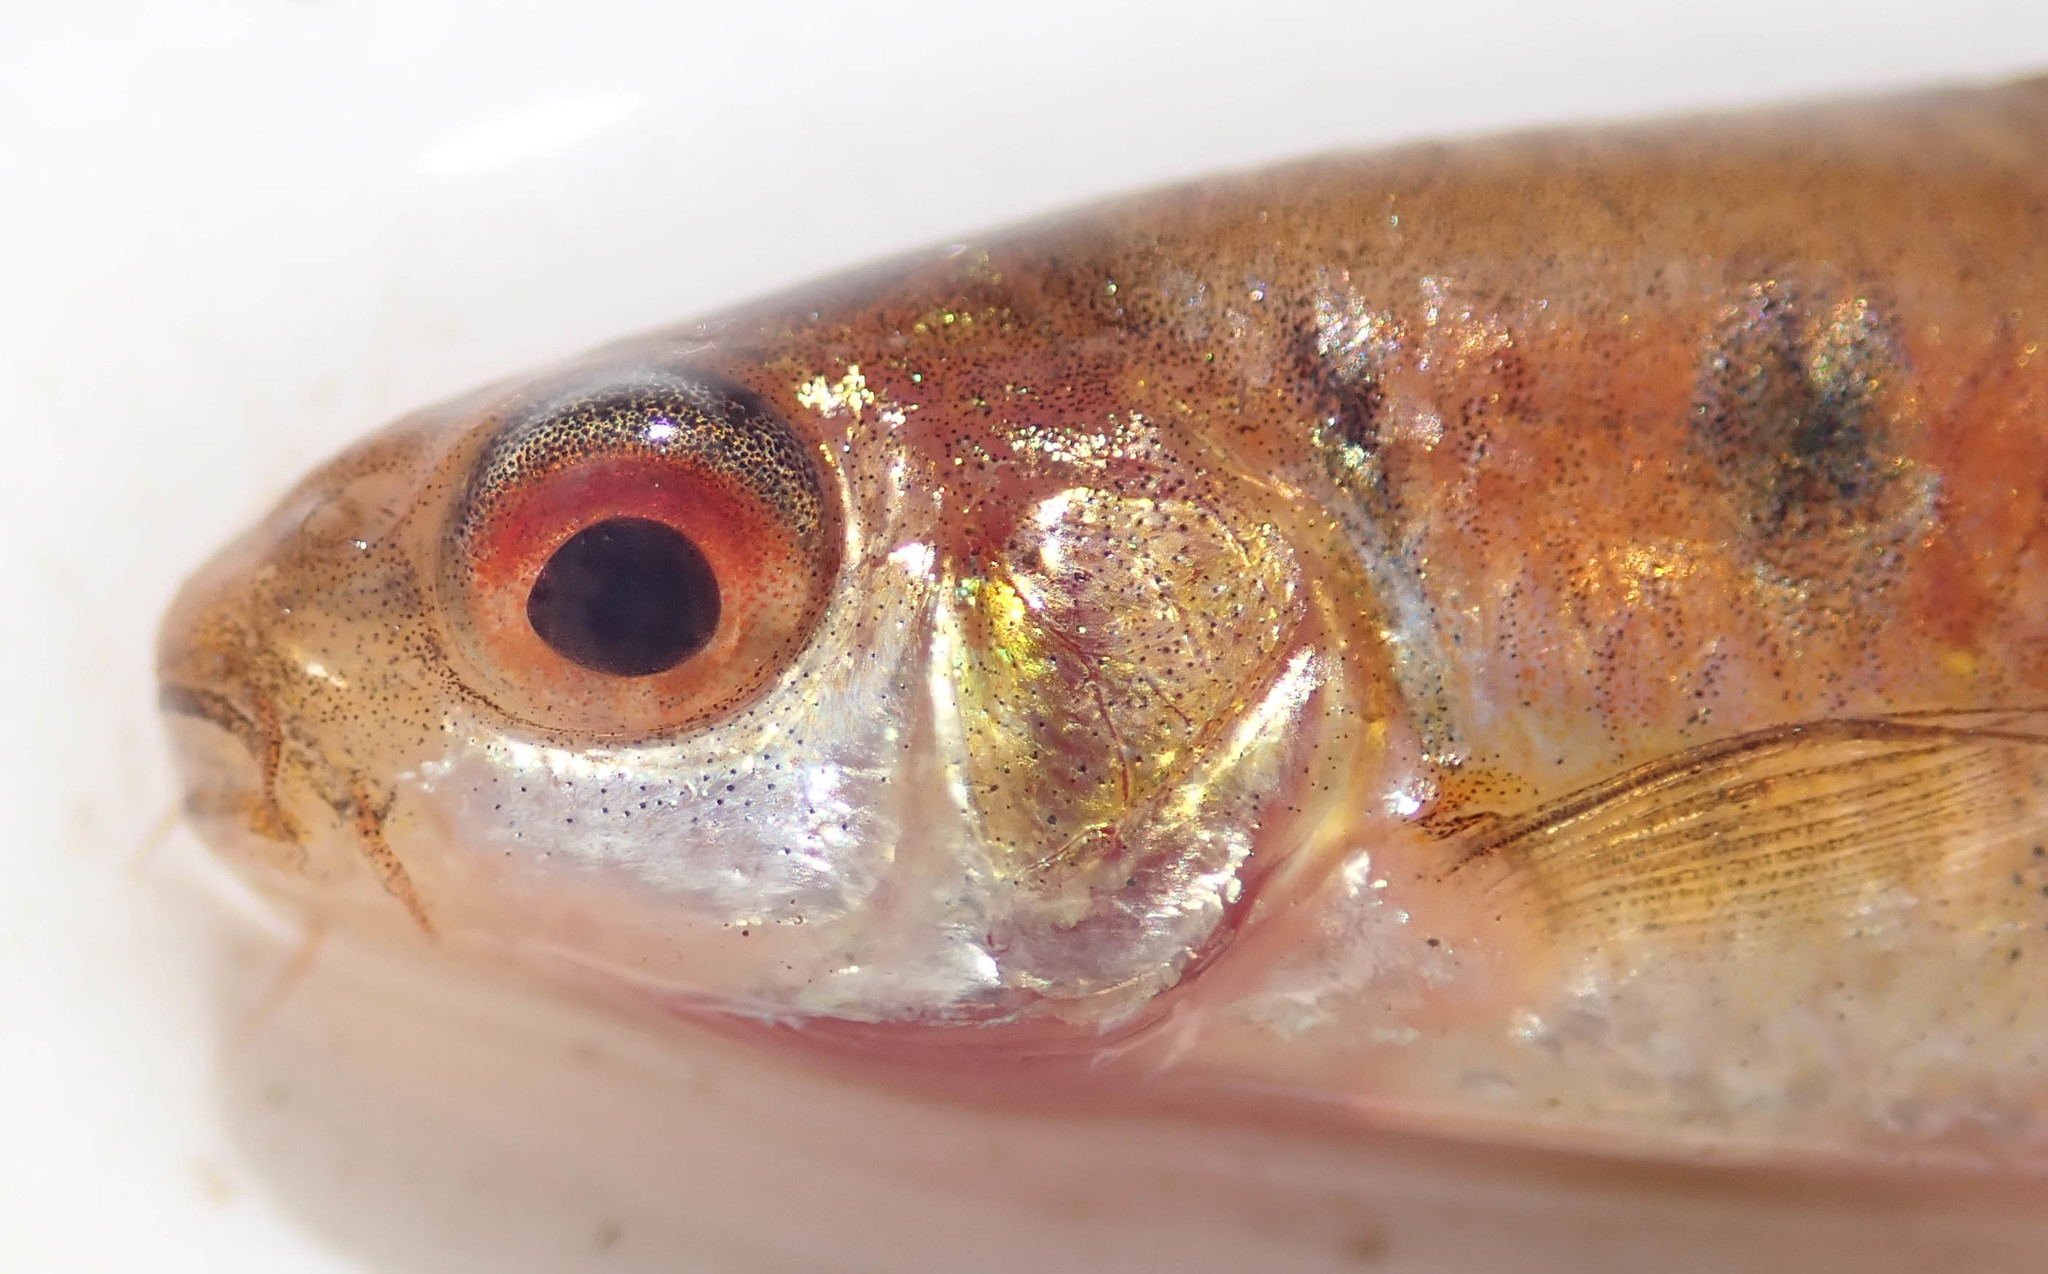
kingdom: Animalia
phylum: Chordata
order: Cypriniformes
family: Cyprinidae
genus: Enteromius
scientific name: Enteromius fasciolatus
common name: Red barb
